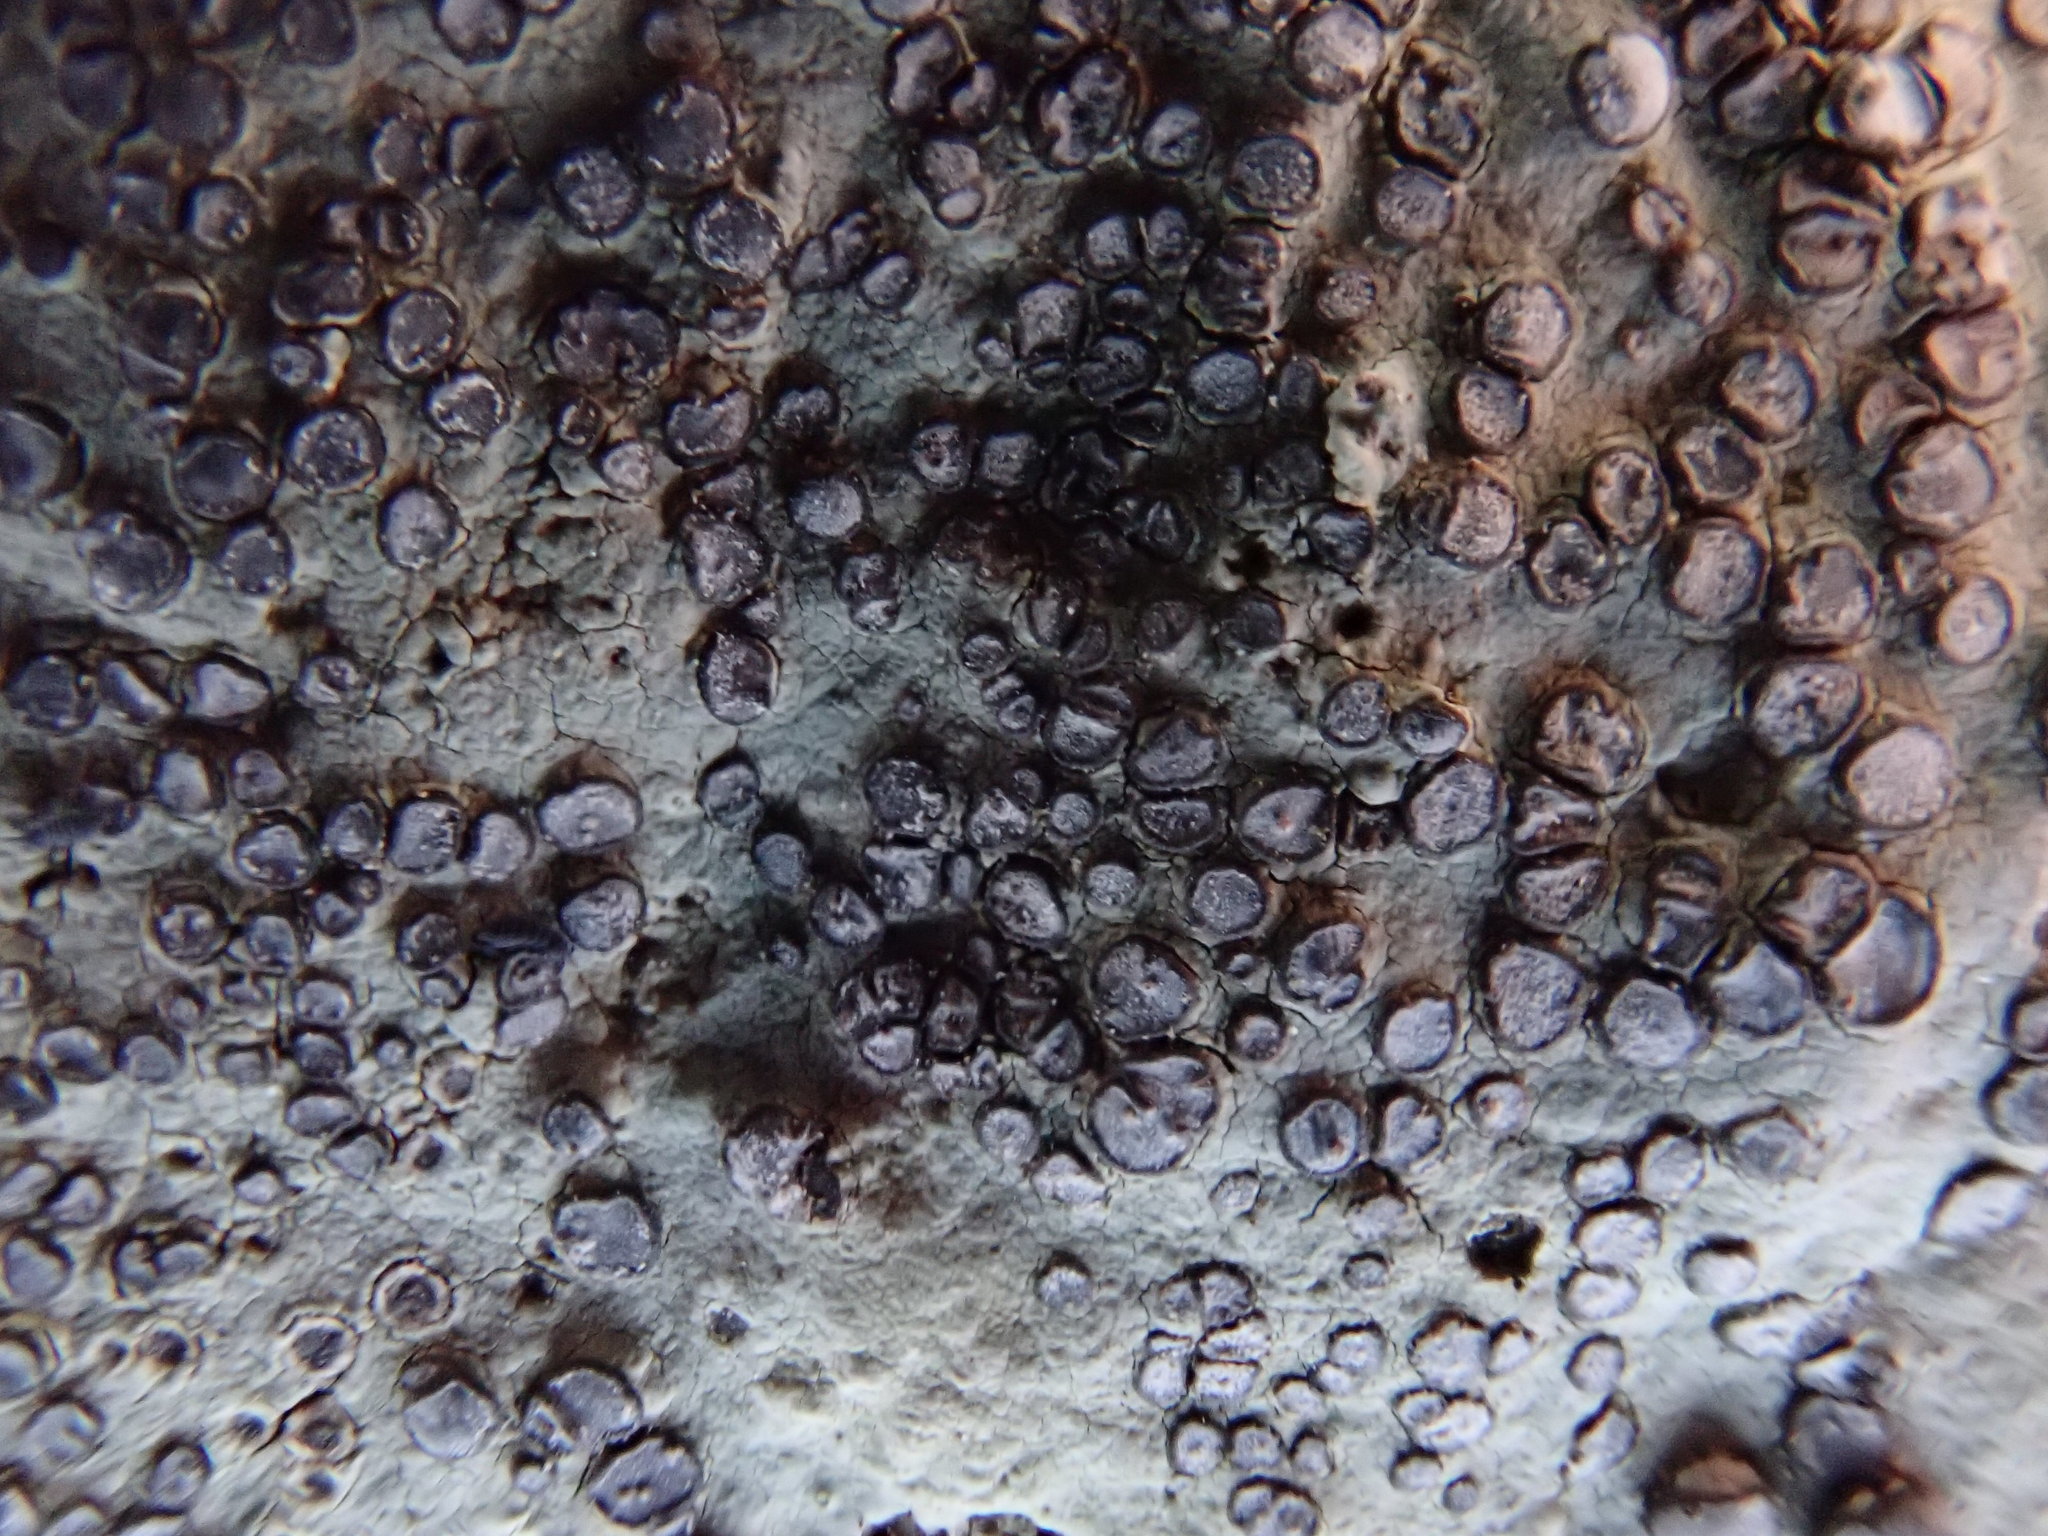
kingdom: Fungi
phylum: Ascomycota
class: Lecanoromycetes
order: Lecideales
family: Lecideaceae
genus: Porpidia
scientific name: Porpidia albocaerulescens
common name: Smokey-eyed boulder lichen
